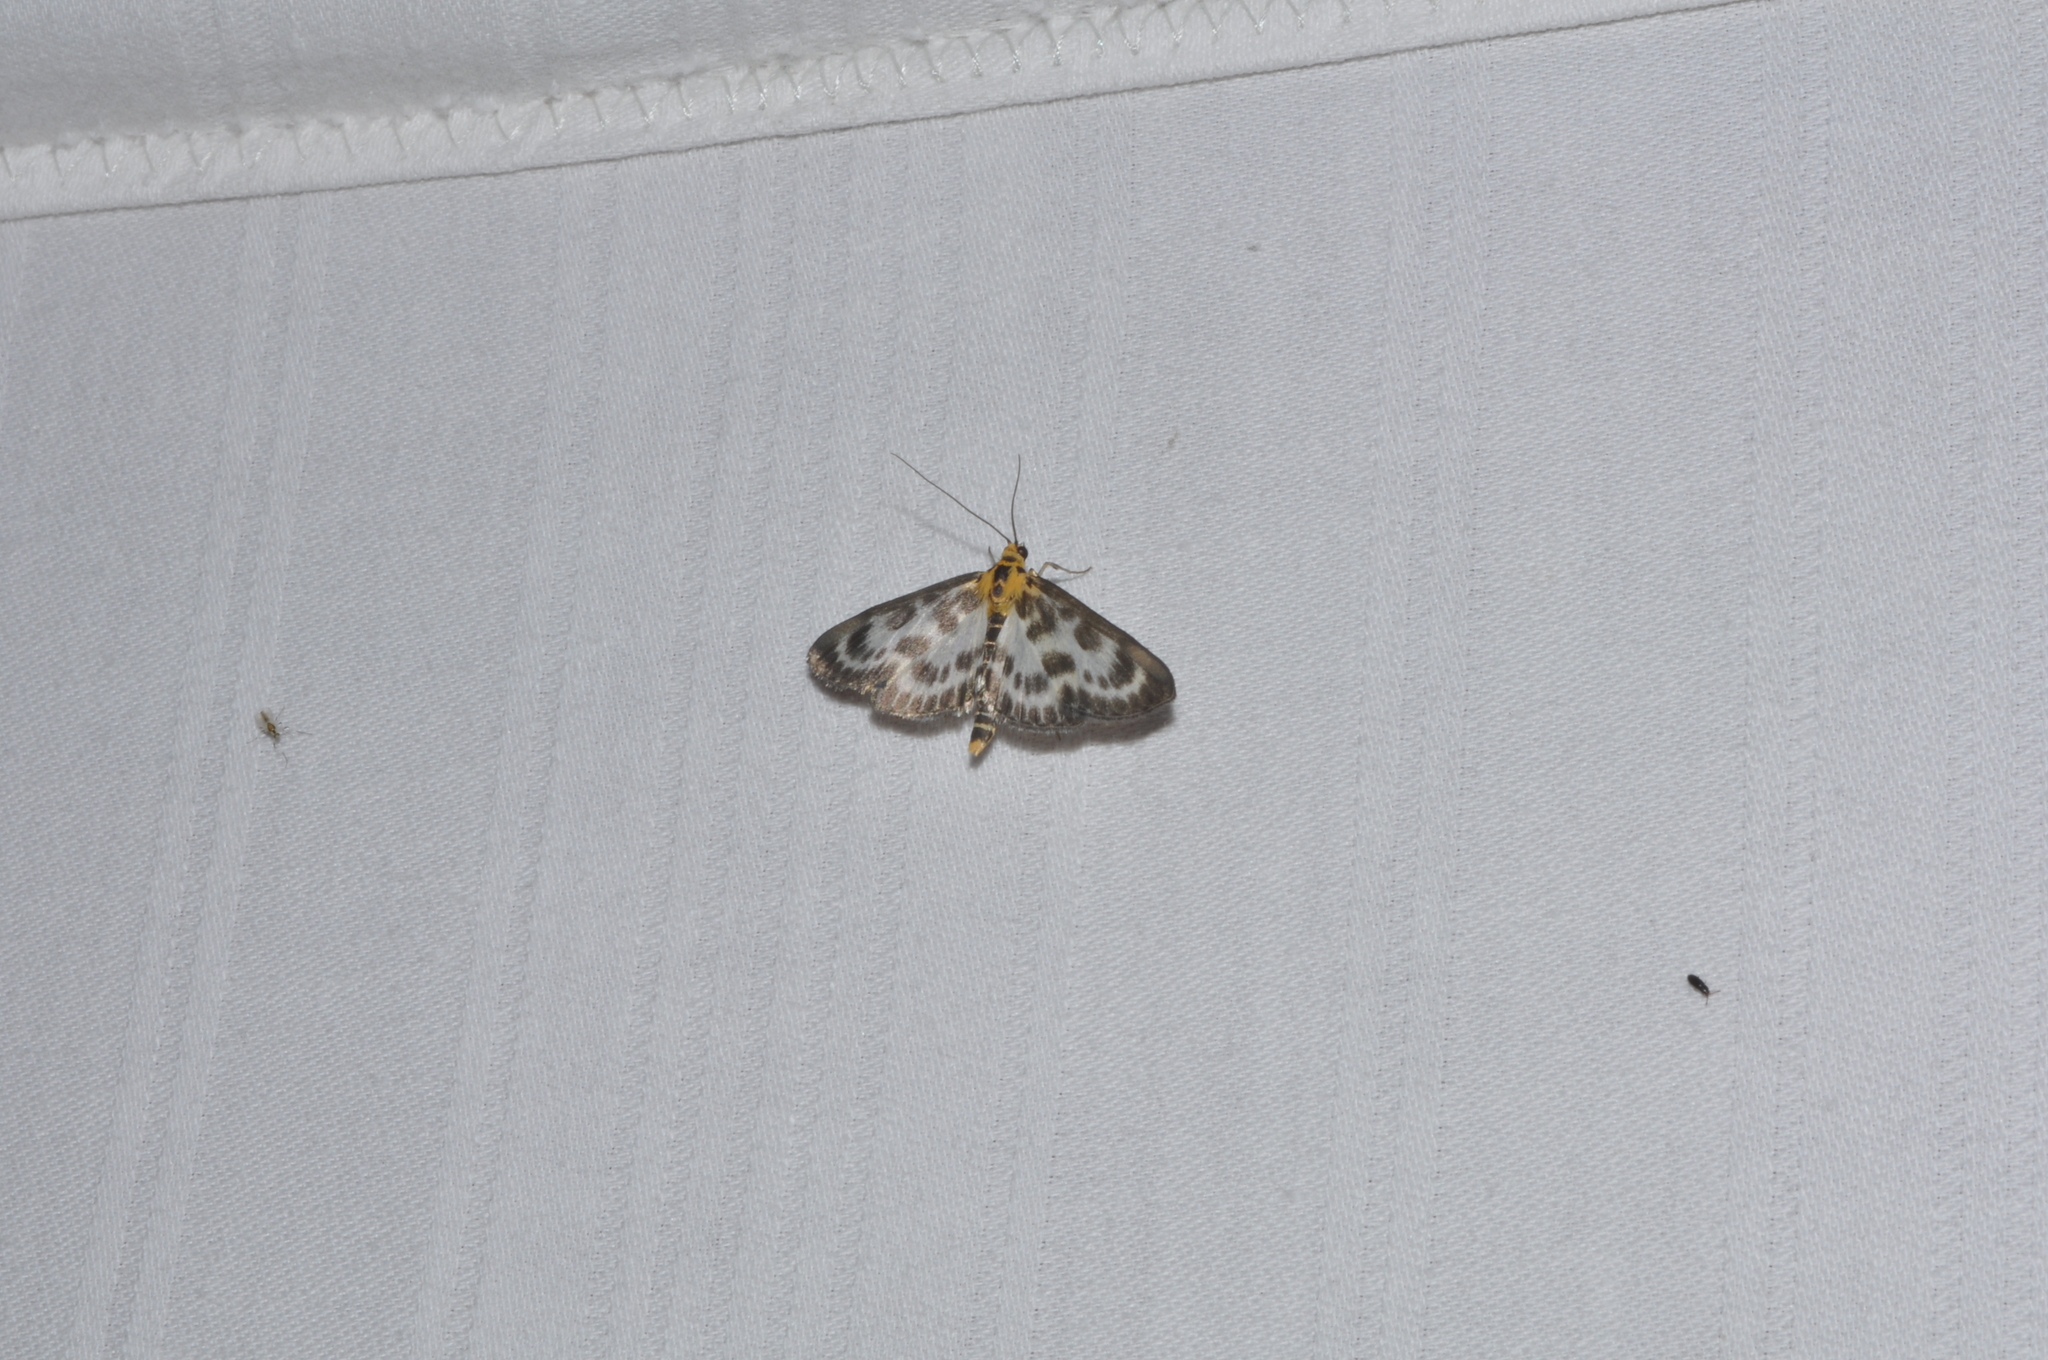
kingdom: Animalia
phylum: Arthropoda
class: Insecta
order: Lepidoptera
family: Crambidae
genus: Anania
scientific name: Anania hortulata
